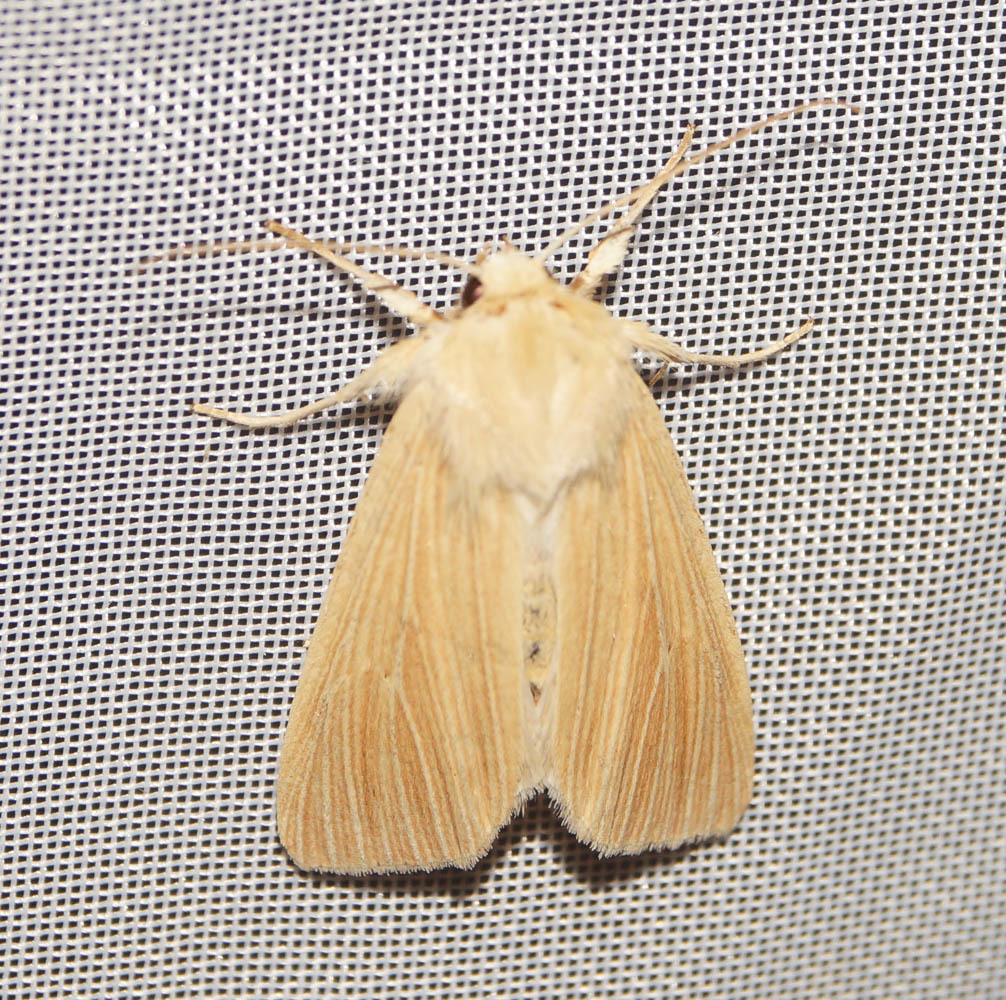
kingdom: Animalia
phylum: Arthropoda
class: Insecta
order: Lepidoptera
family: Noctuidae
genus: Mythimna
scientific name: Mythimna pallens
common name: Common wainscot
